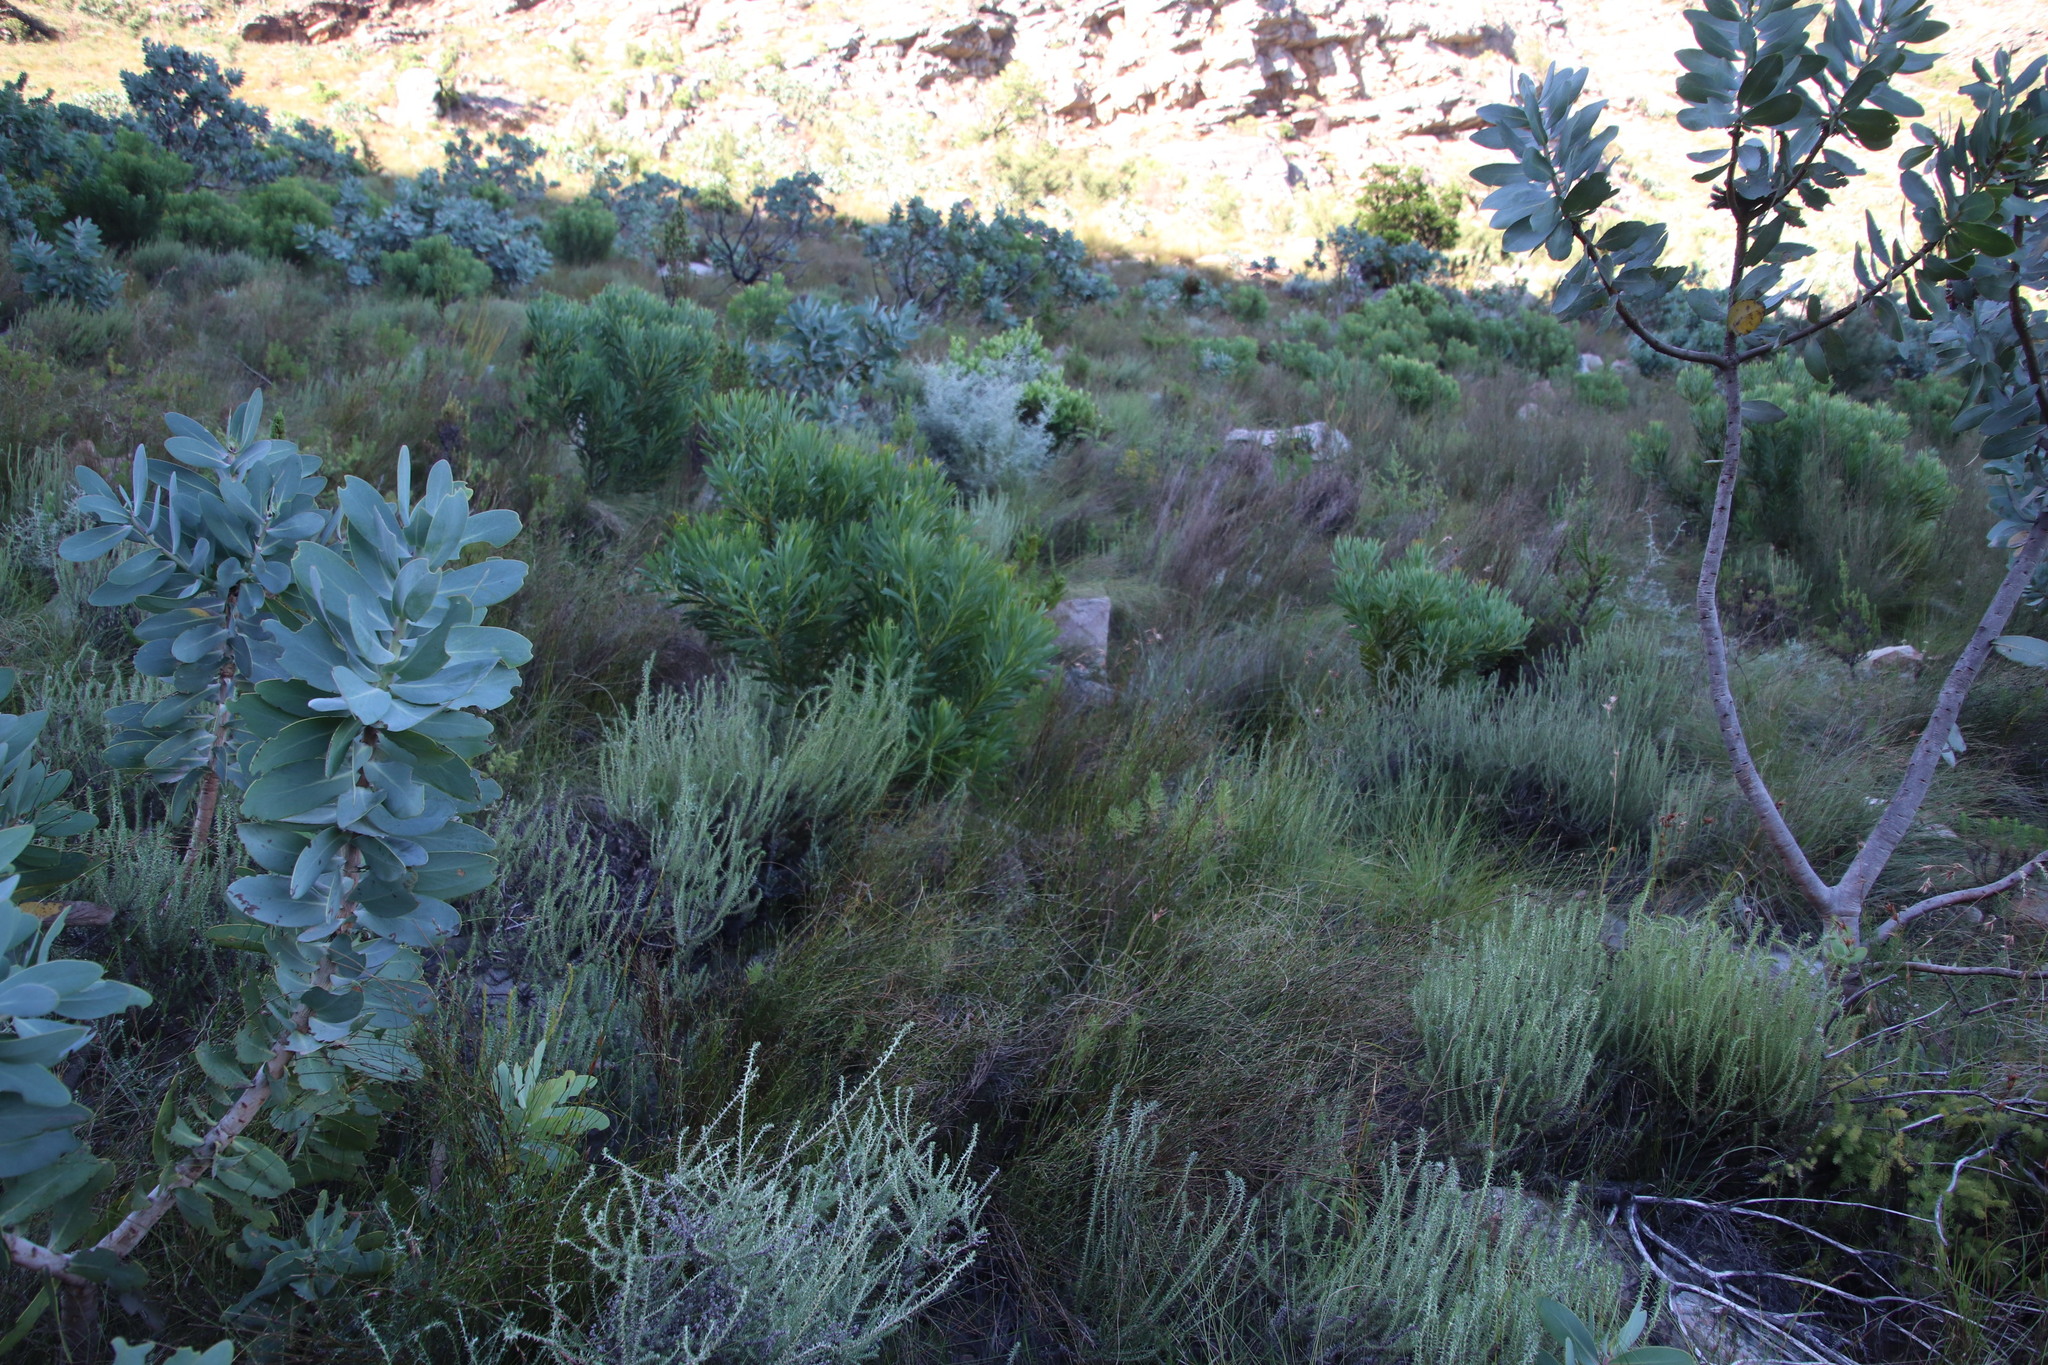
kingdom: Plantae
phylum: Tracheophyta
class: Magnoliopsida
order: Proteales
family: Proteaceae
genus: Protea
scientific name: Protea repens
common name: Sugarbush
